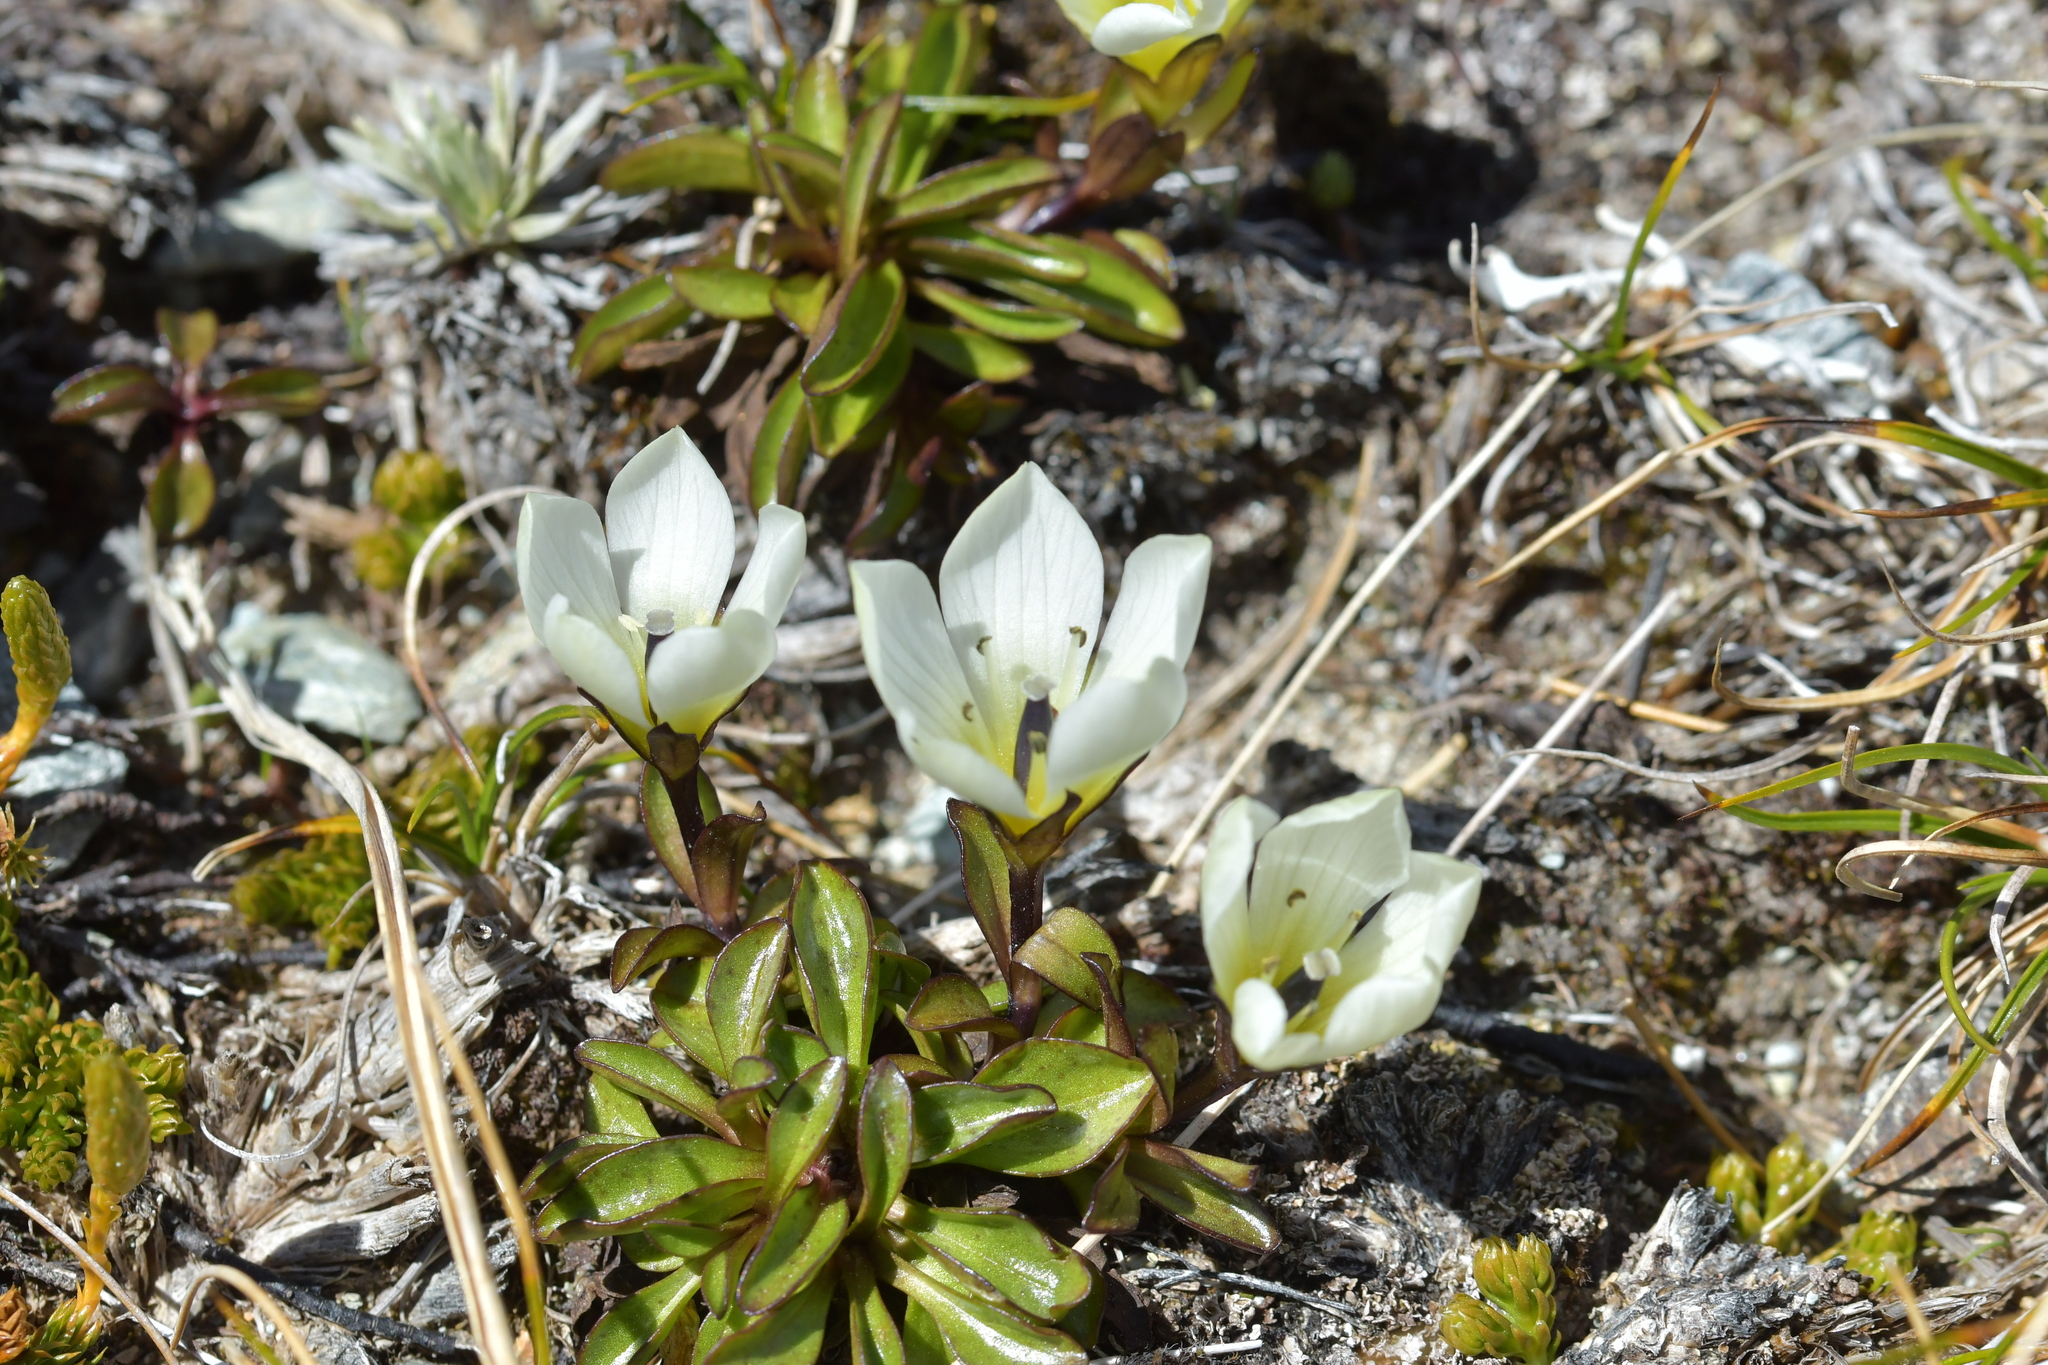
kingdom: Plantae
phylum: Tracheophyta
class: Magnoliopsida
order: Gentianales
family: Gentianaceae
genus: Gentianella
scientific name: Gentianella bellidifolia
